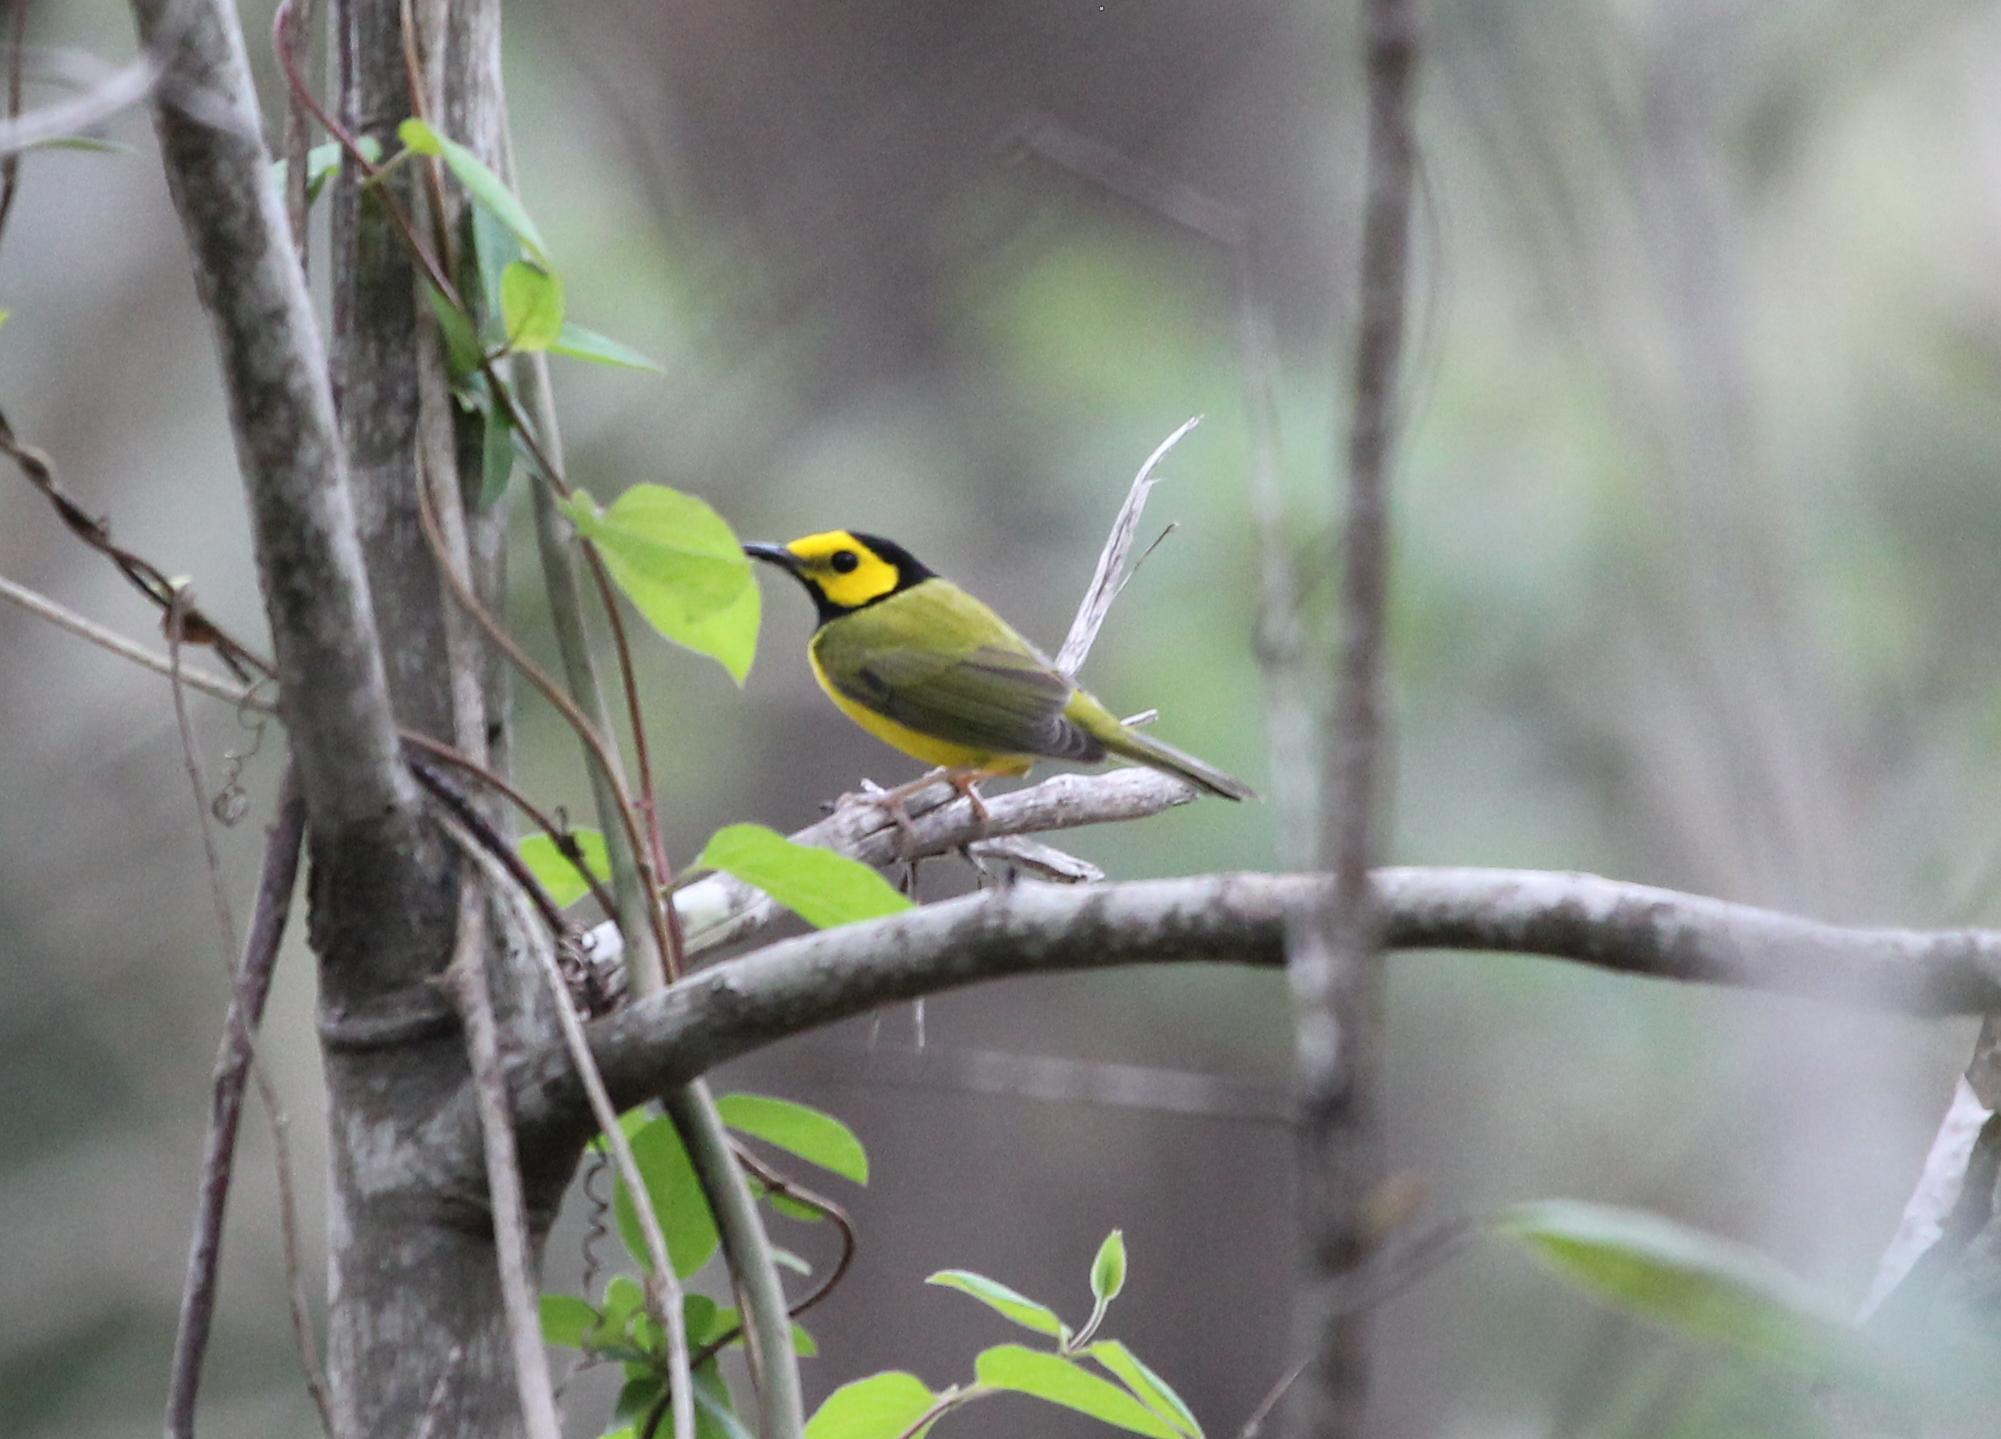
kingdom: Animalia
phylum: Chordata
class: Aves
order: Passeriformes
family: Parulidae
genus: Setophaga
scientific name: Setophaga citrina
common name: Hooded warbler
